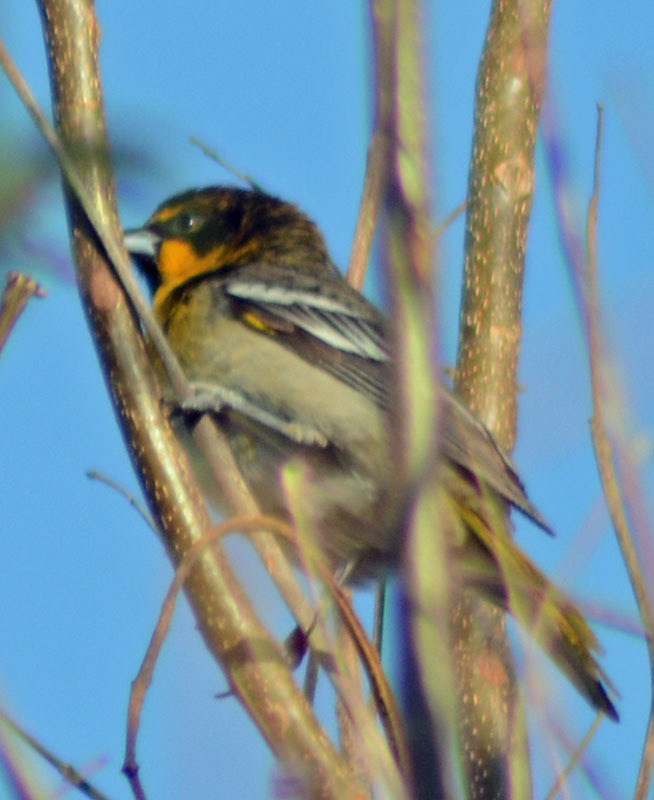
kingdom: Animalia
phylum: Chordata
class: Aves
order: Passeriformes
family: Icteridae
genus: Icterus
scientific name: Icterus abeillei
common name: Black-backed oriole
